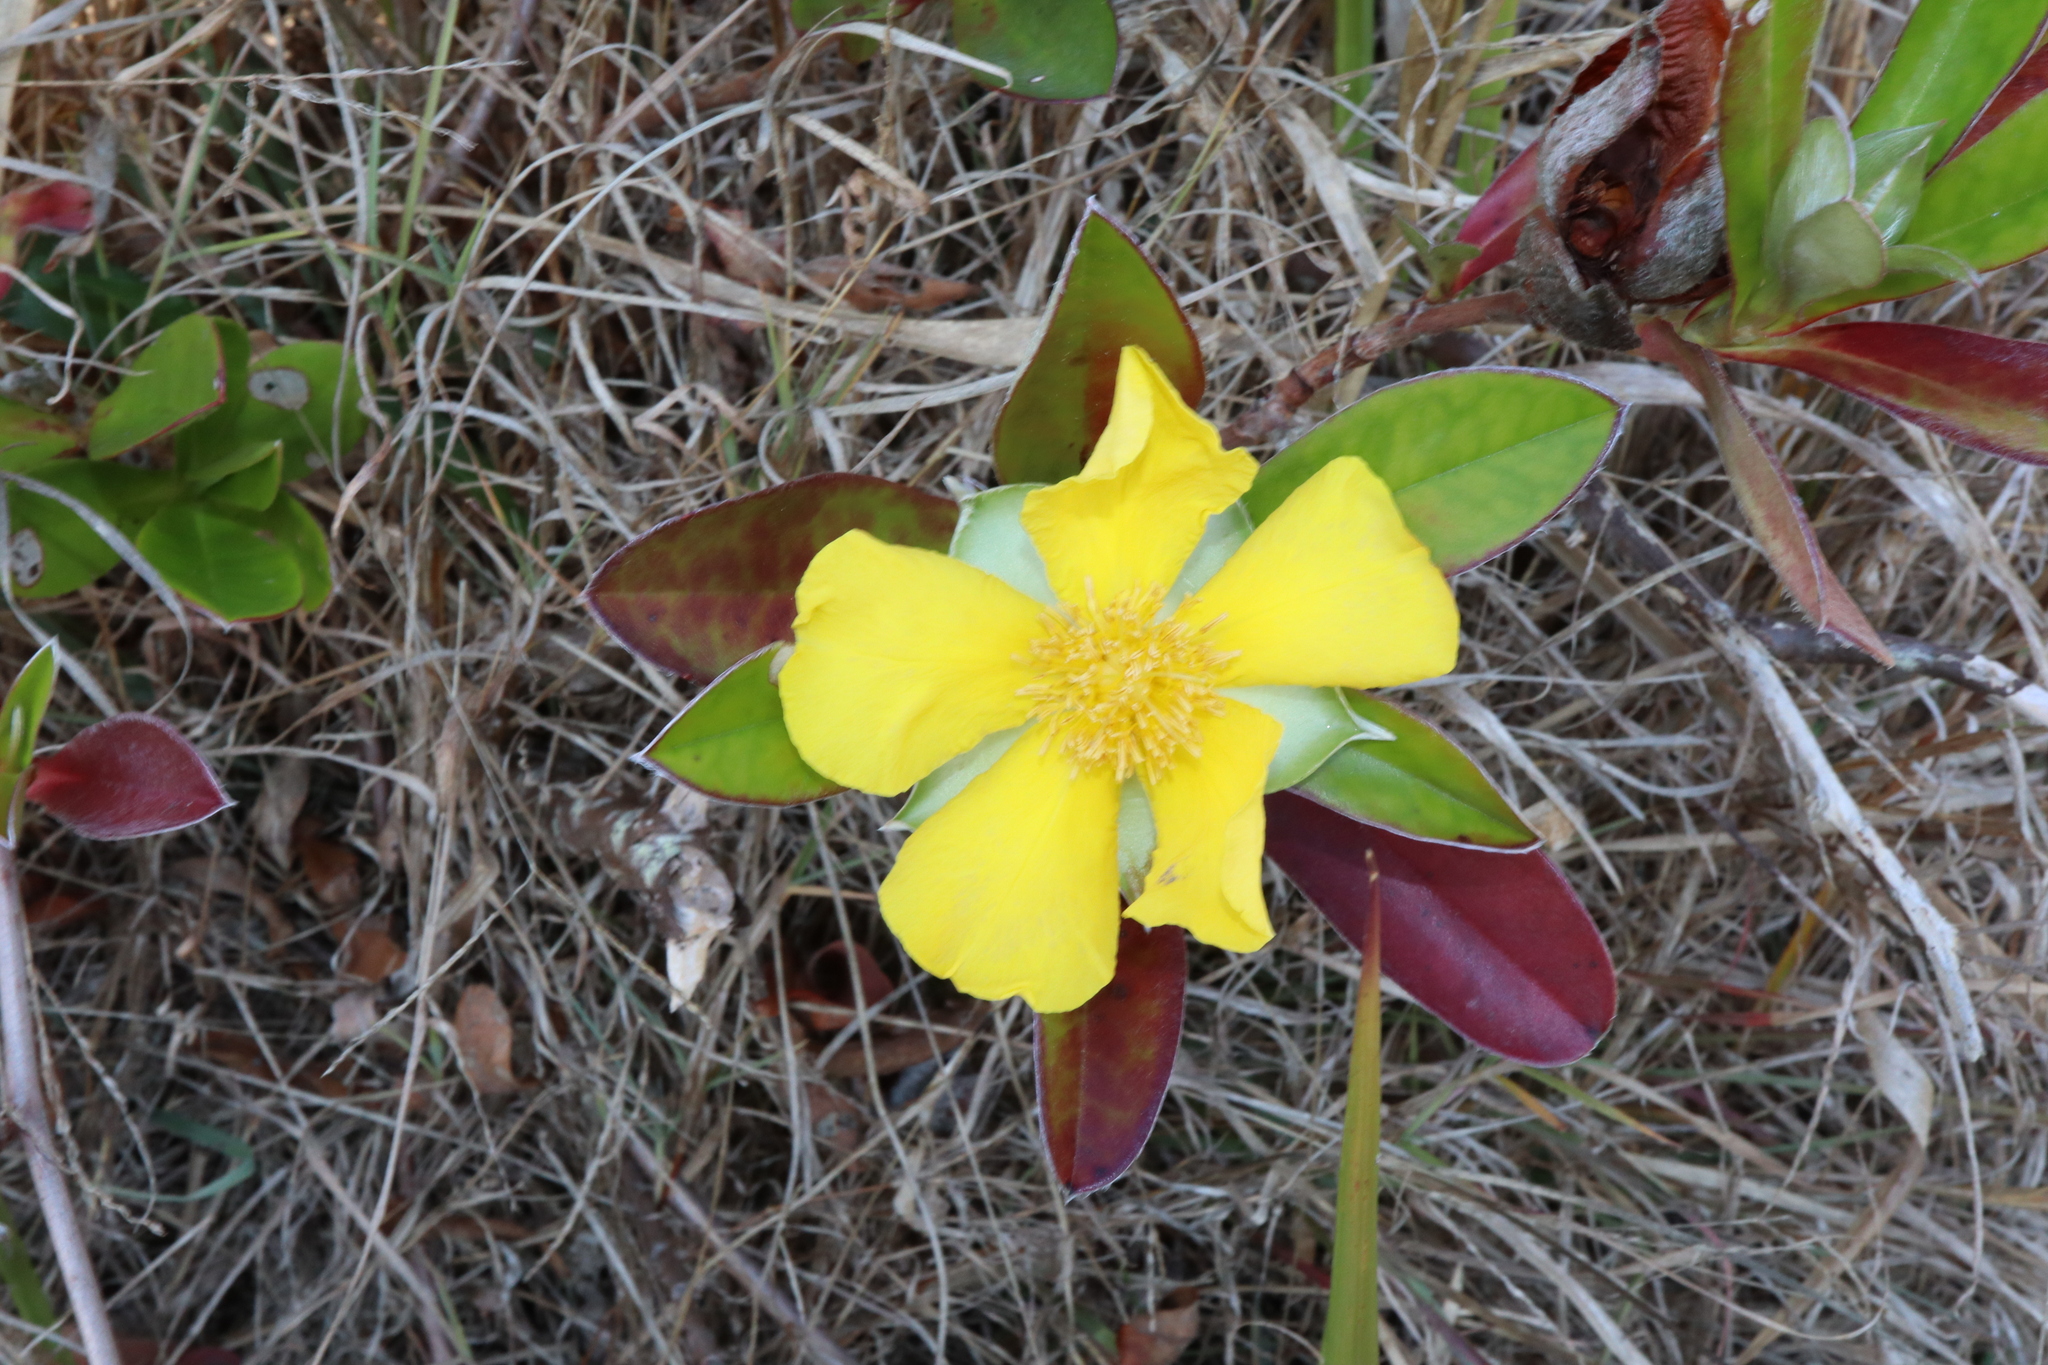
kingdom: Plantae
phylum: Tracheophyta
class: Magnoliopsida
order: Dilleniales
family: Dilleniaceae
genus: Hibbertia
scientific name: Hibbertia scandens
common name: Climbing guinea-flower
